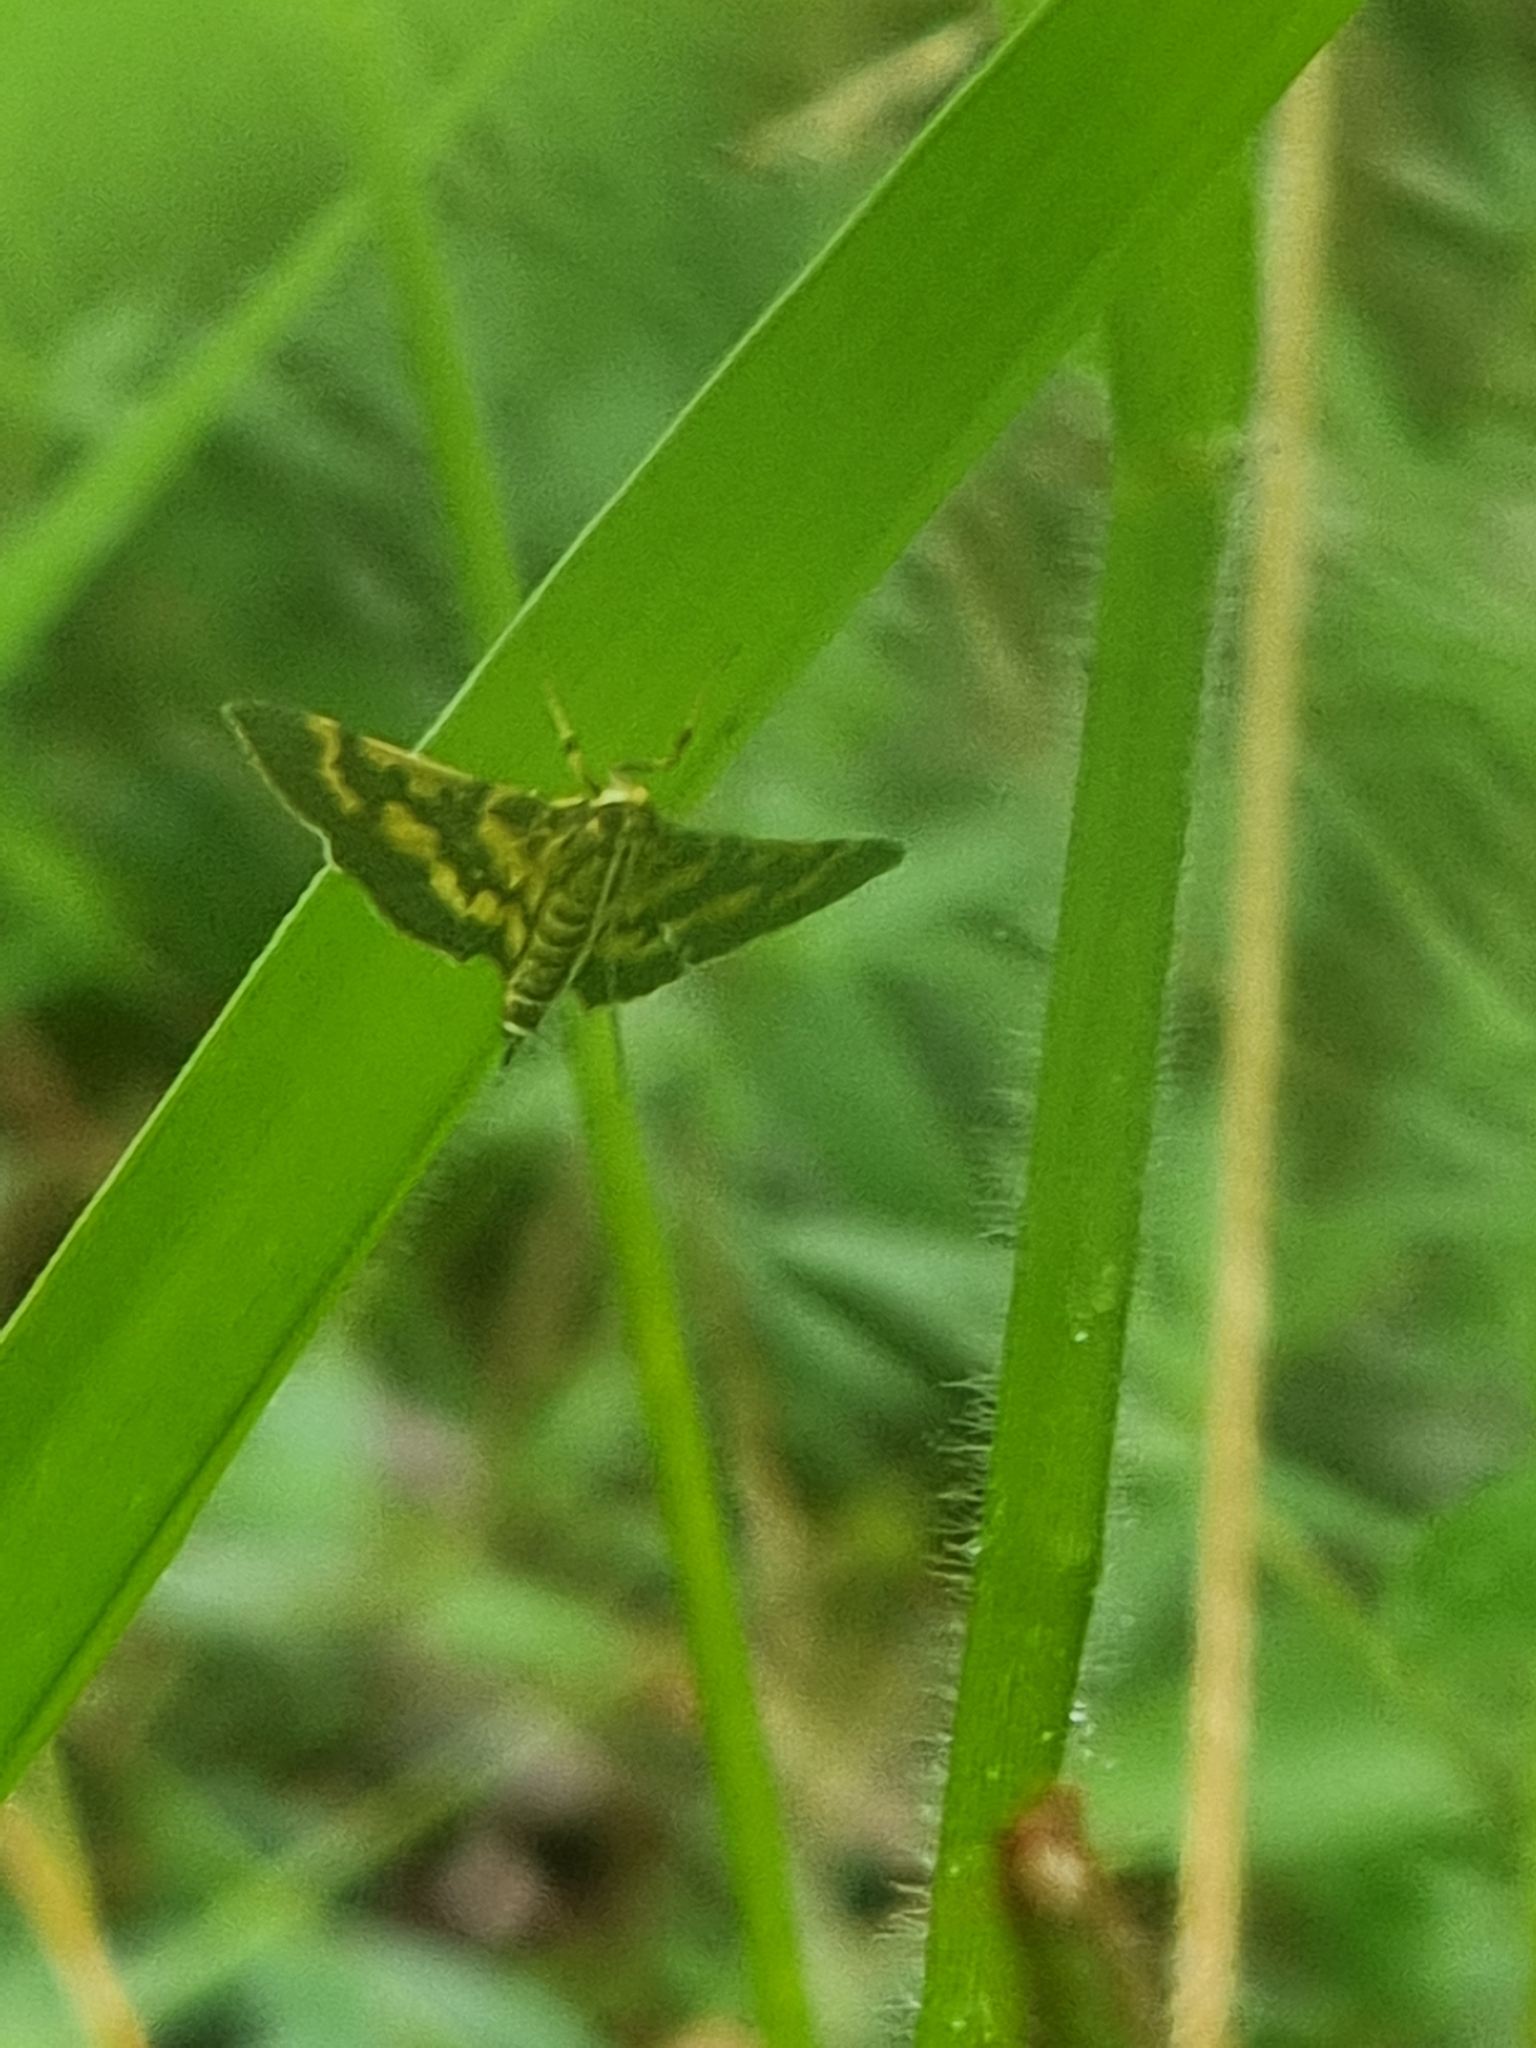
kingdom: Animalia
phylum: Arthropoda
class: Insecta
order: Lepidoptera
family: Crambidae
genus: Omiodes
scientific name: Omiodes diemenalis
